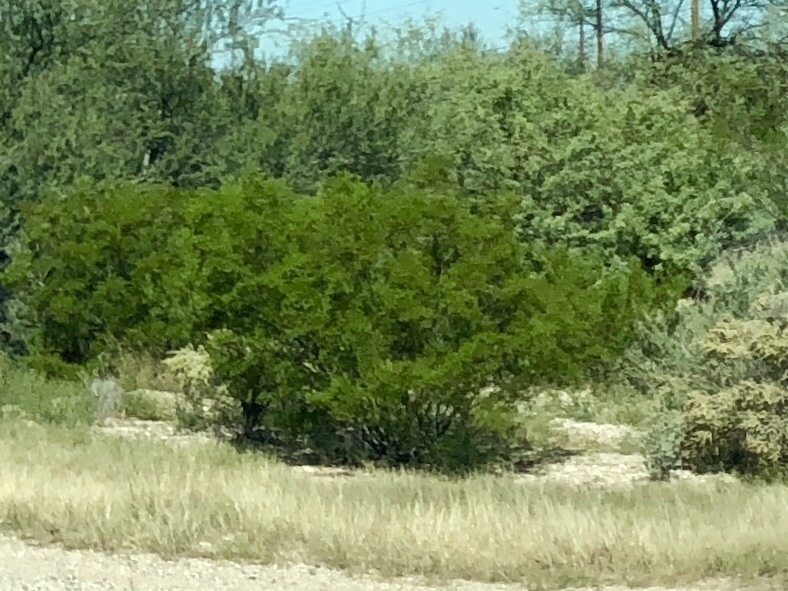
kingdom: Plantae
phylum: Tracheophyta
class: Magnoliopsida
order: Zygophyllales
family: Zygophyllaceae
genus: Larrea
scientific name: Larrea tridentata
